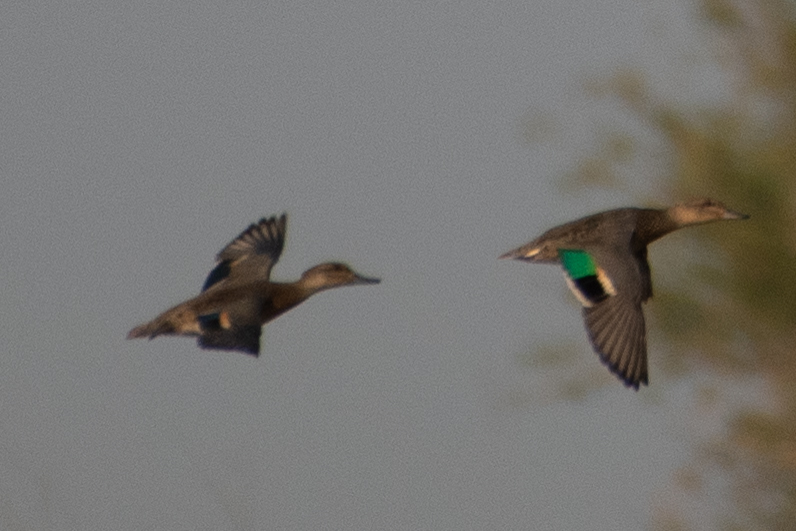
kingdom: Animalia
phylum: Chordata
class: Aves
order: Anseriformes
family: Anatidae
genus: Anas
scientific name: Anas crecca
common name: Eurasian teal
